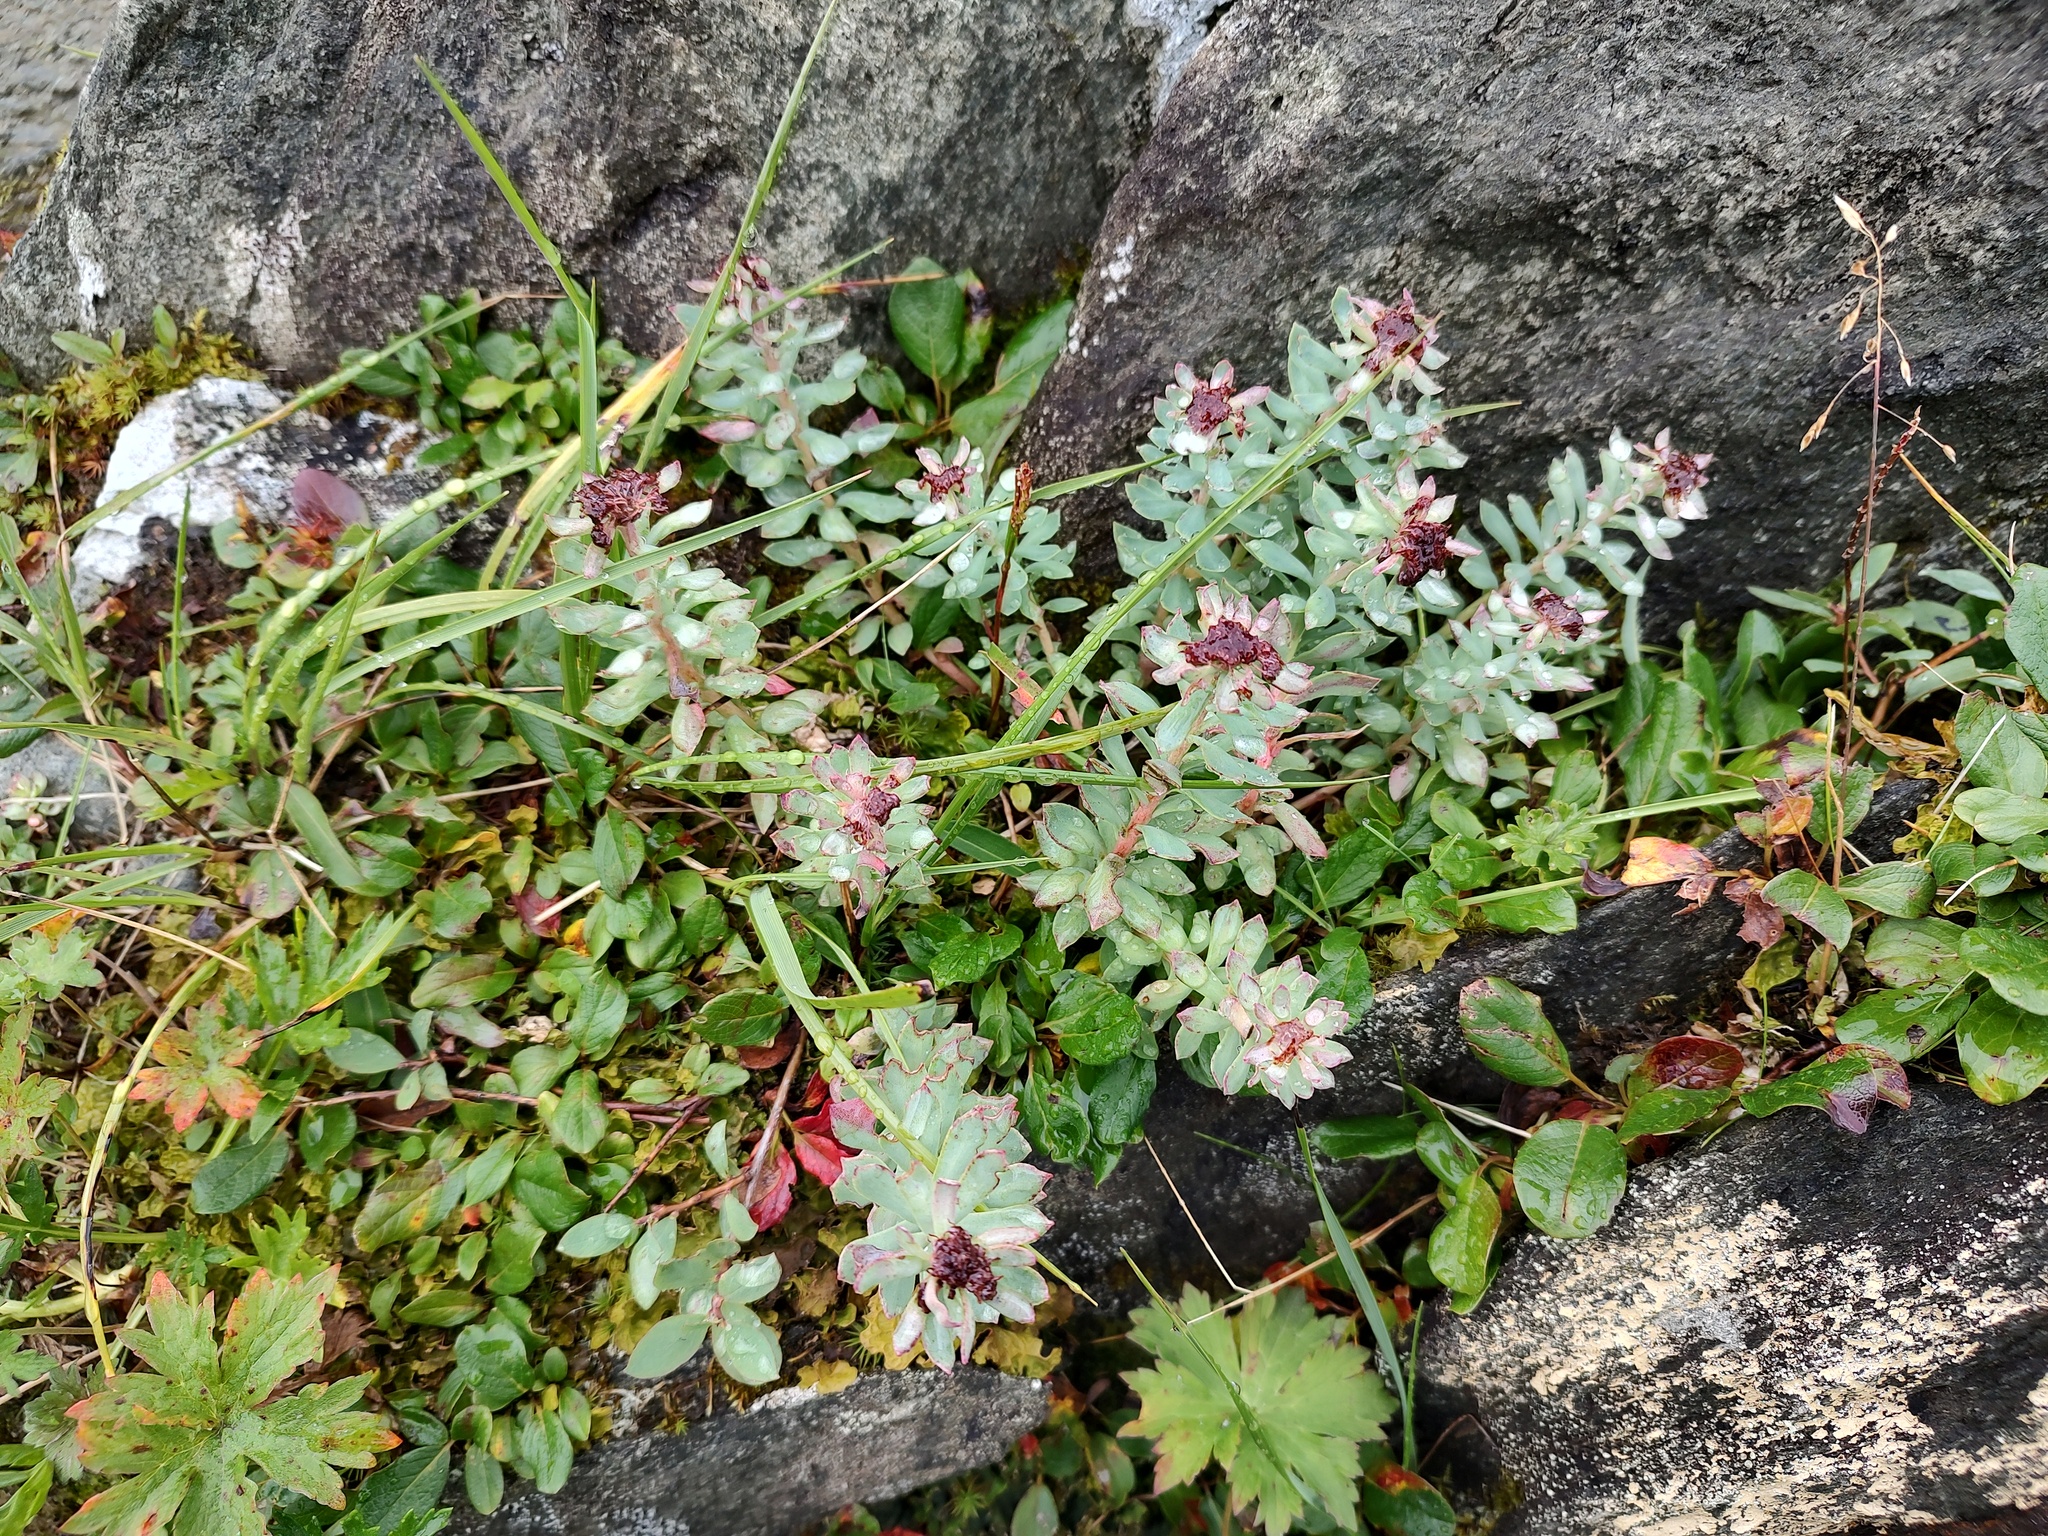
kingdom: Plantae
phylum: Tracheophyta
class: Magnoliopsida
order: Saxifragales
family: Crassulaceae
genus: Rhodiola
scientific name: Rhodiola integrifolia
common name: Western roseroot
